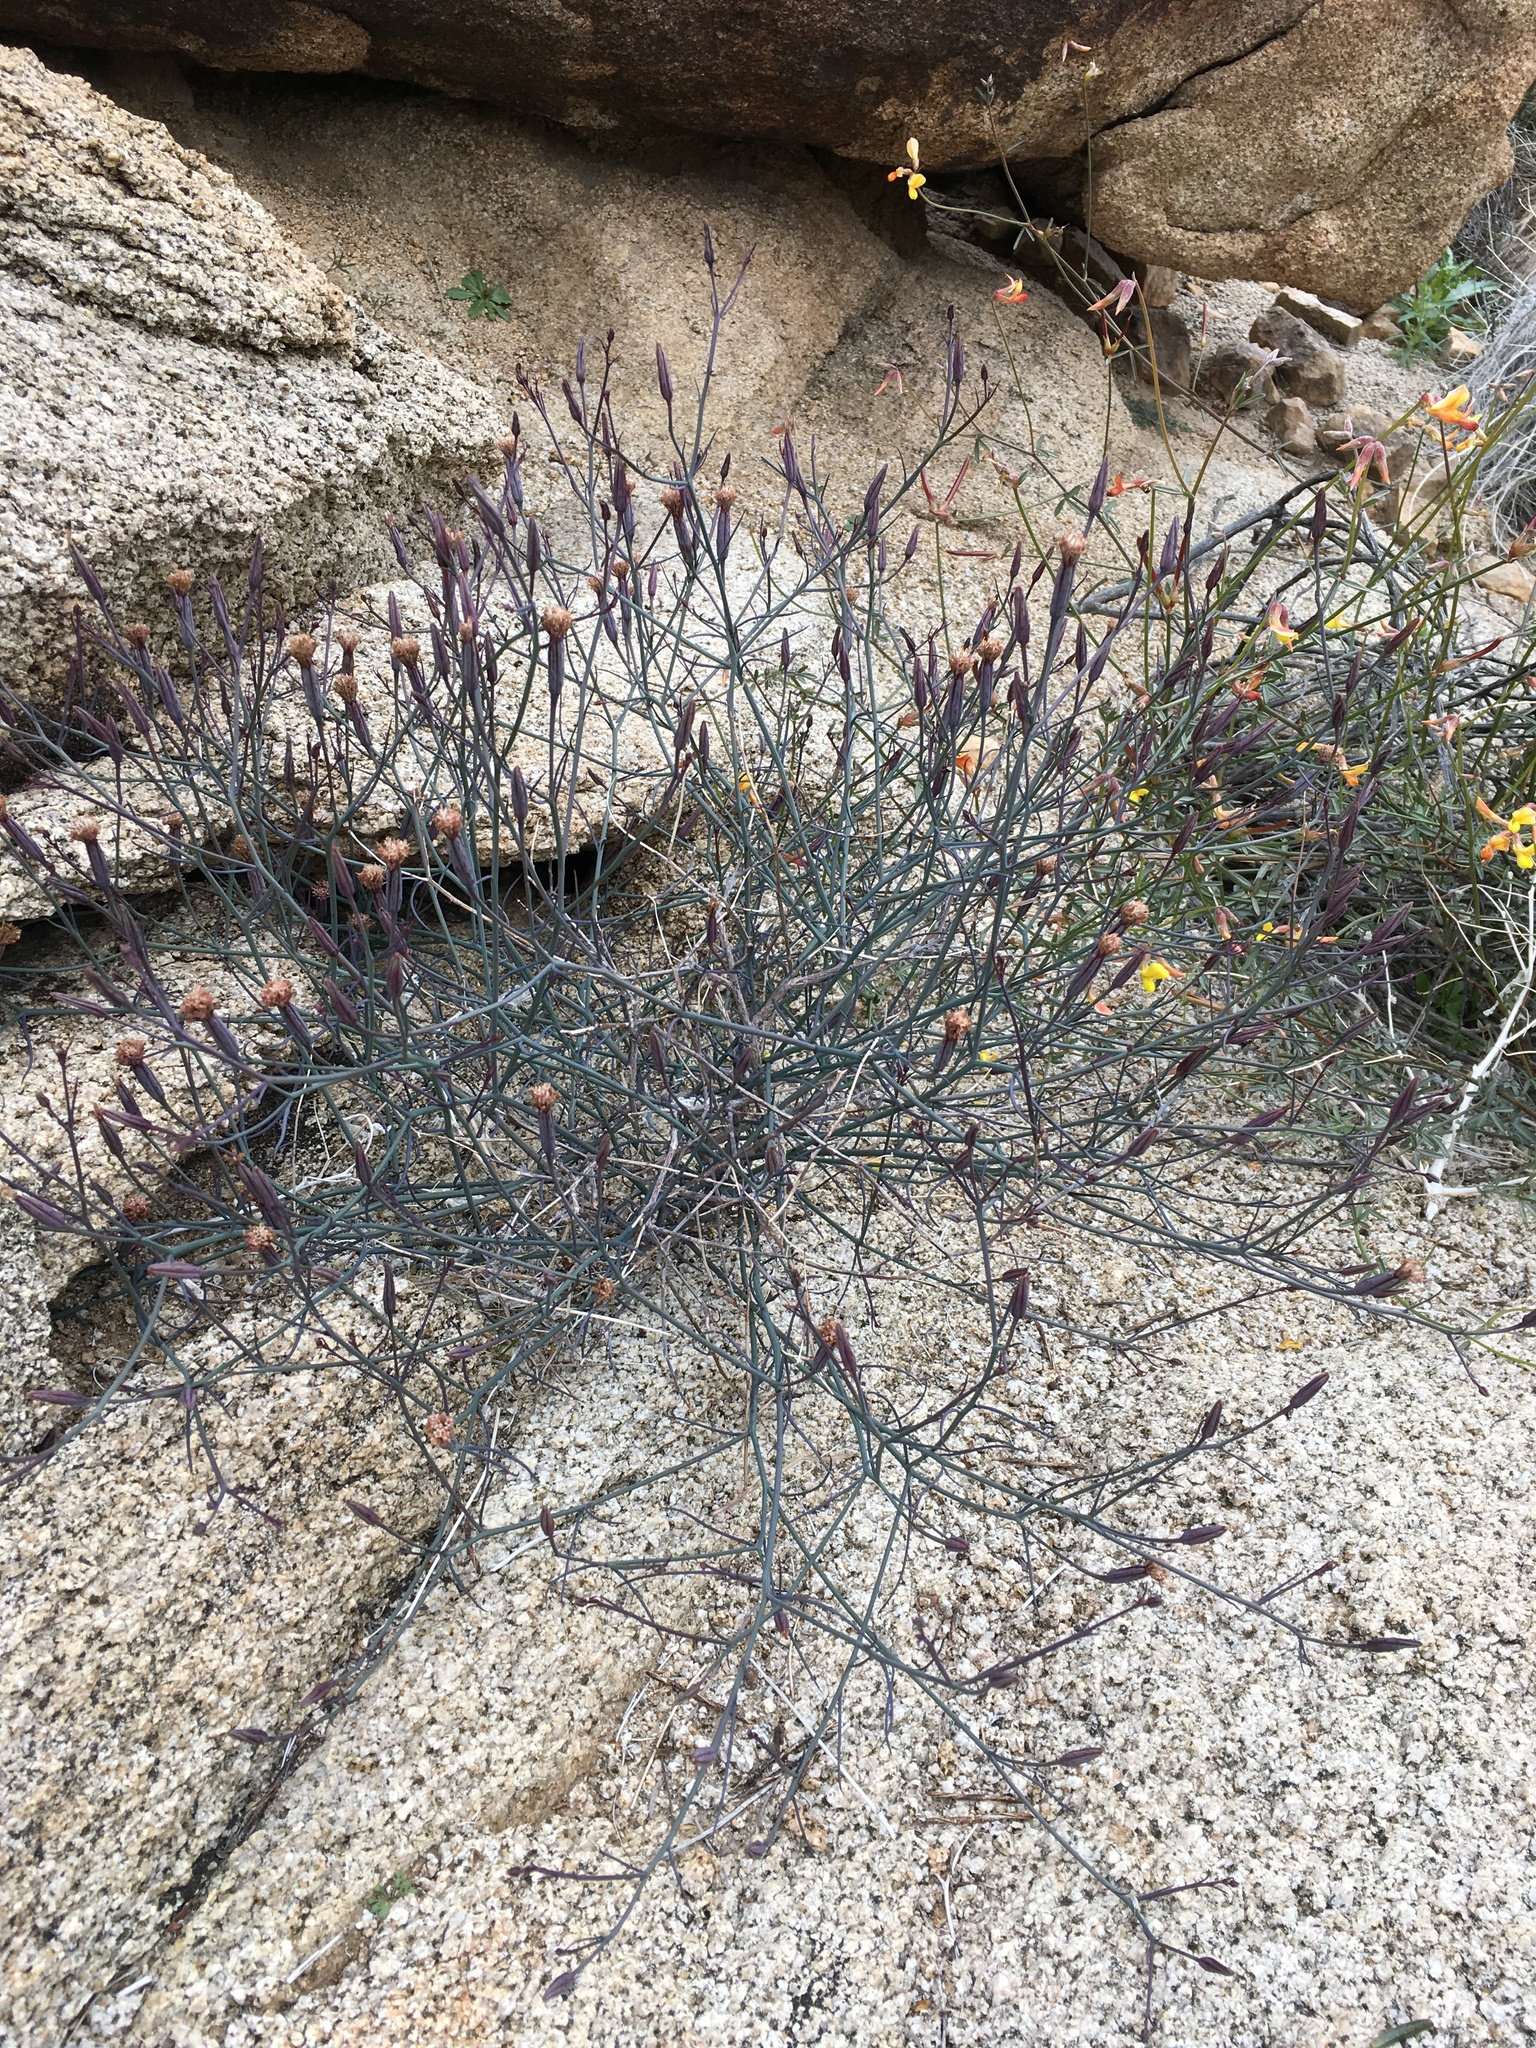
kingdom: Plantae
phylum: Tracheophyta
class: Magnoliopsida
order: Asterales
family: Asteraceae
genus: Porophyllum
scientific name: Porophyllum gracile
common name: Odora
